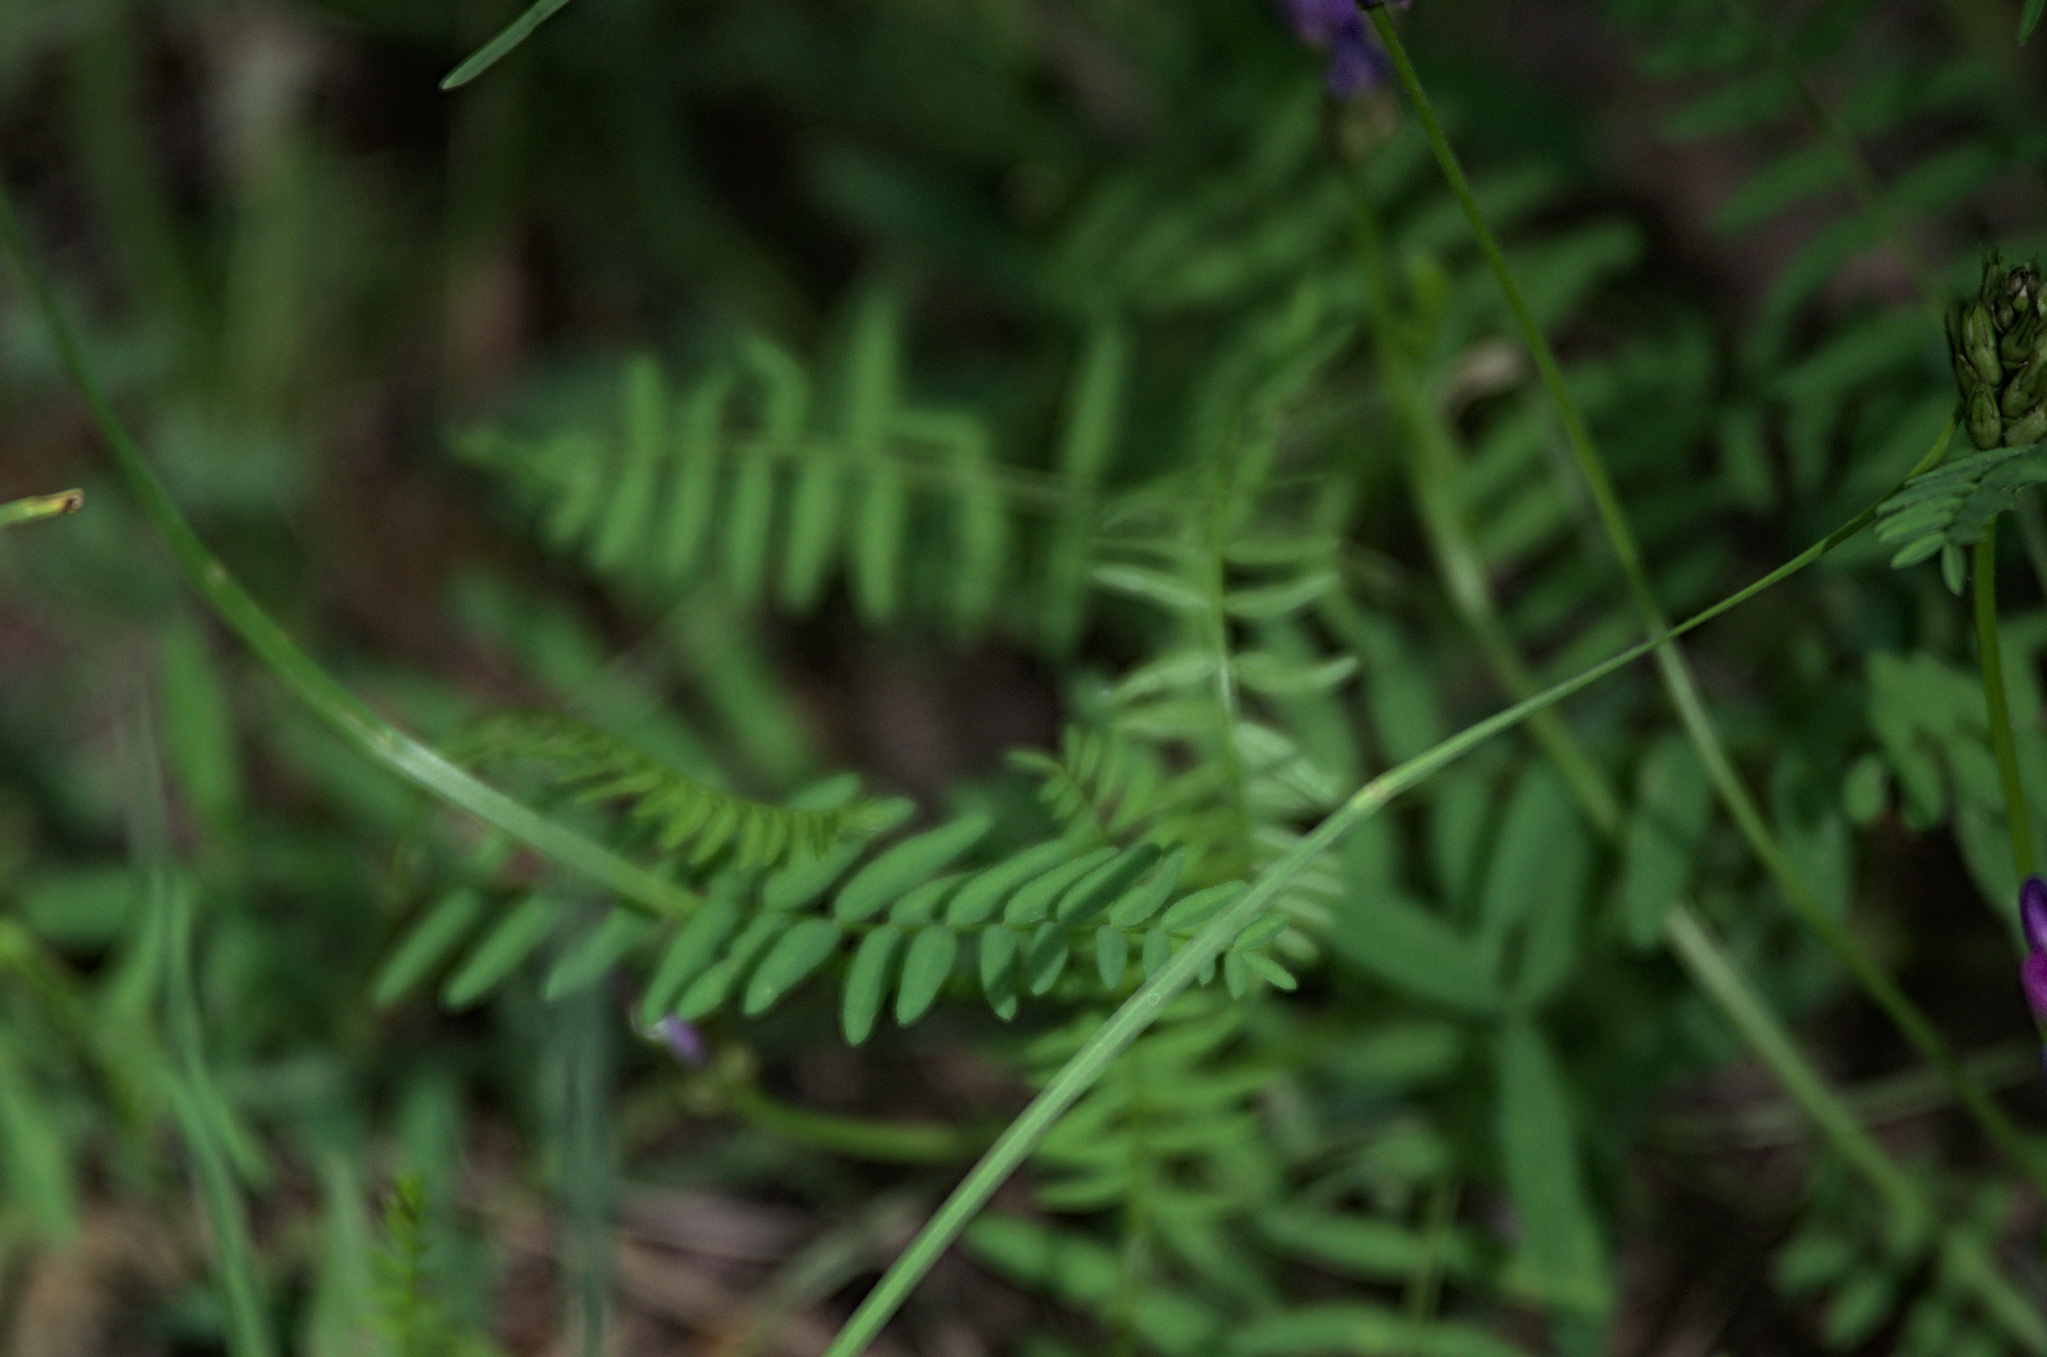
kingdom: Plantae
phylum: Tracheophyta
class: Magnoliopsida
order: Fabales
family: Fabaceae
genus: Astragalus
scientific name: Astragalus danicus
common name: Purple milk-vetch
